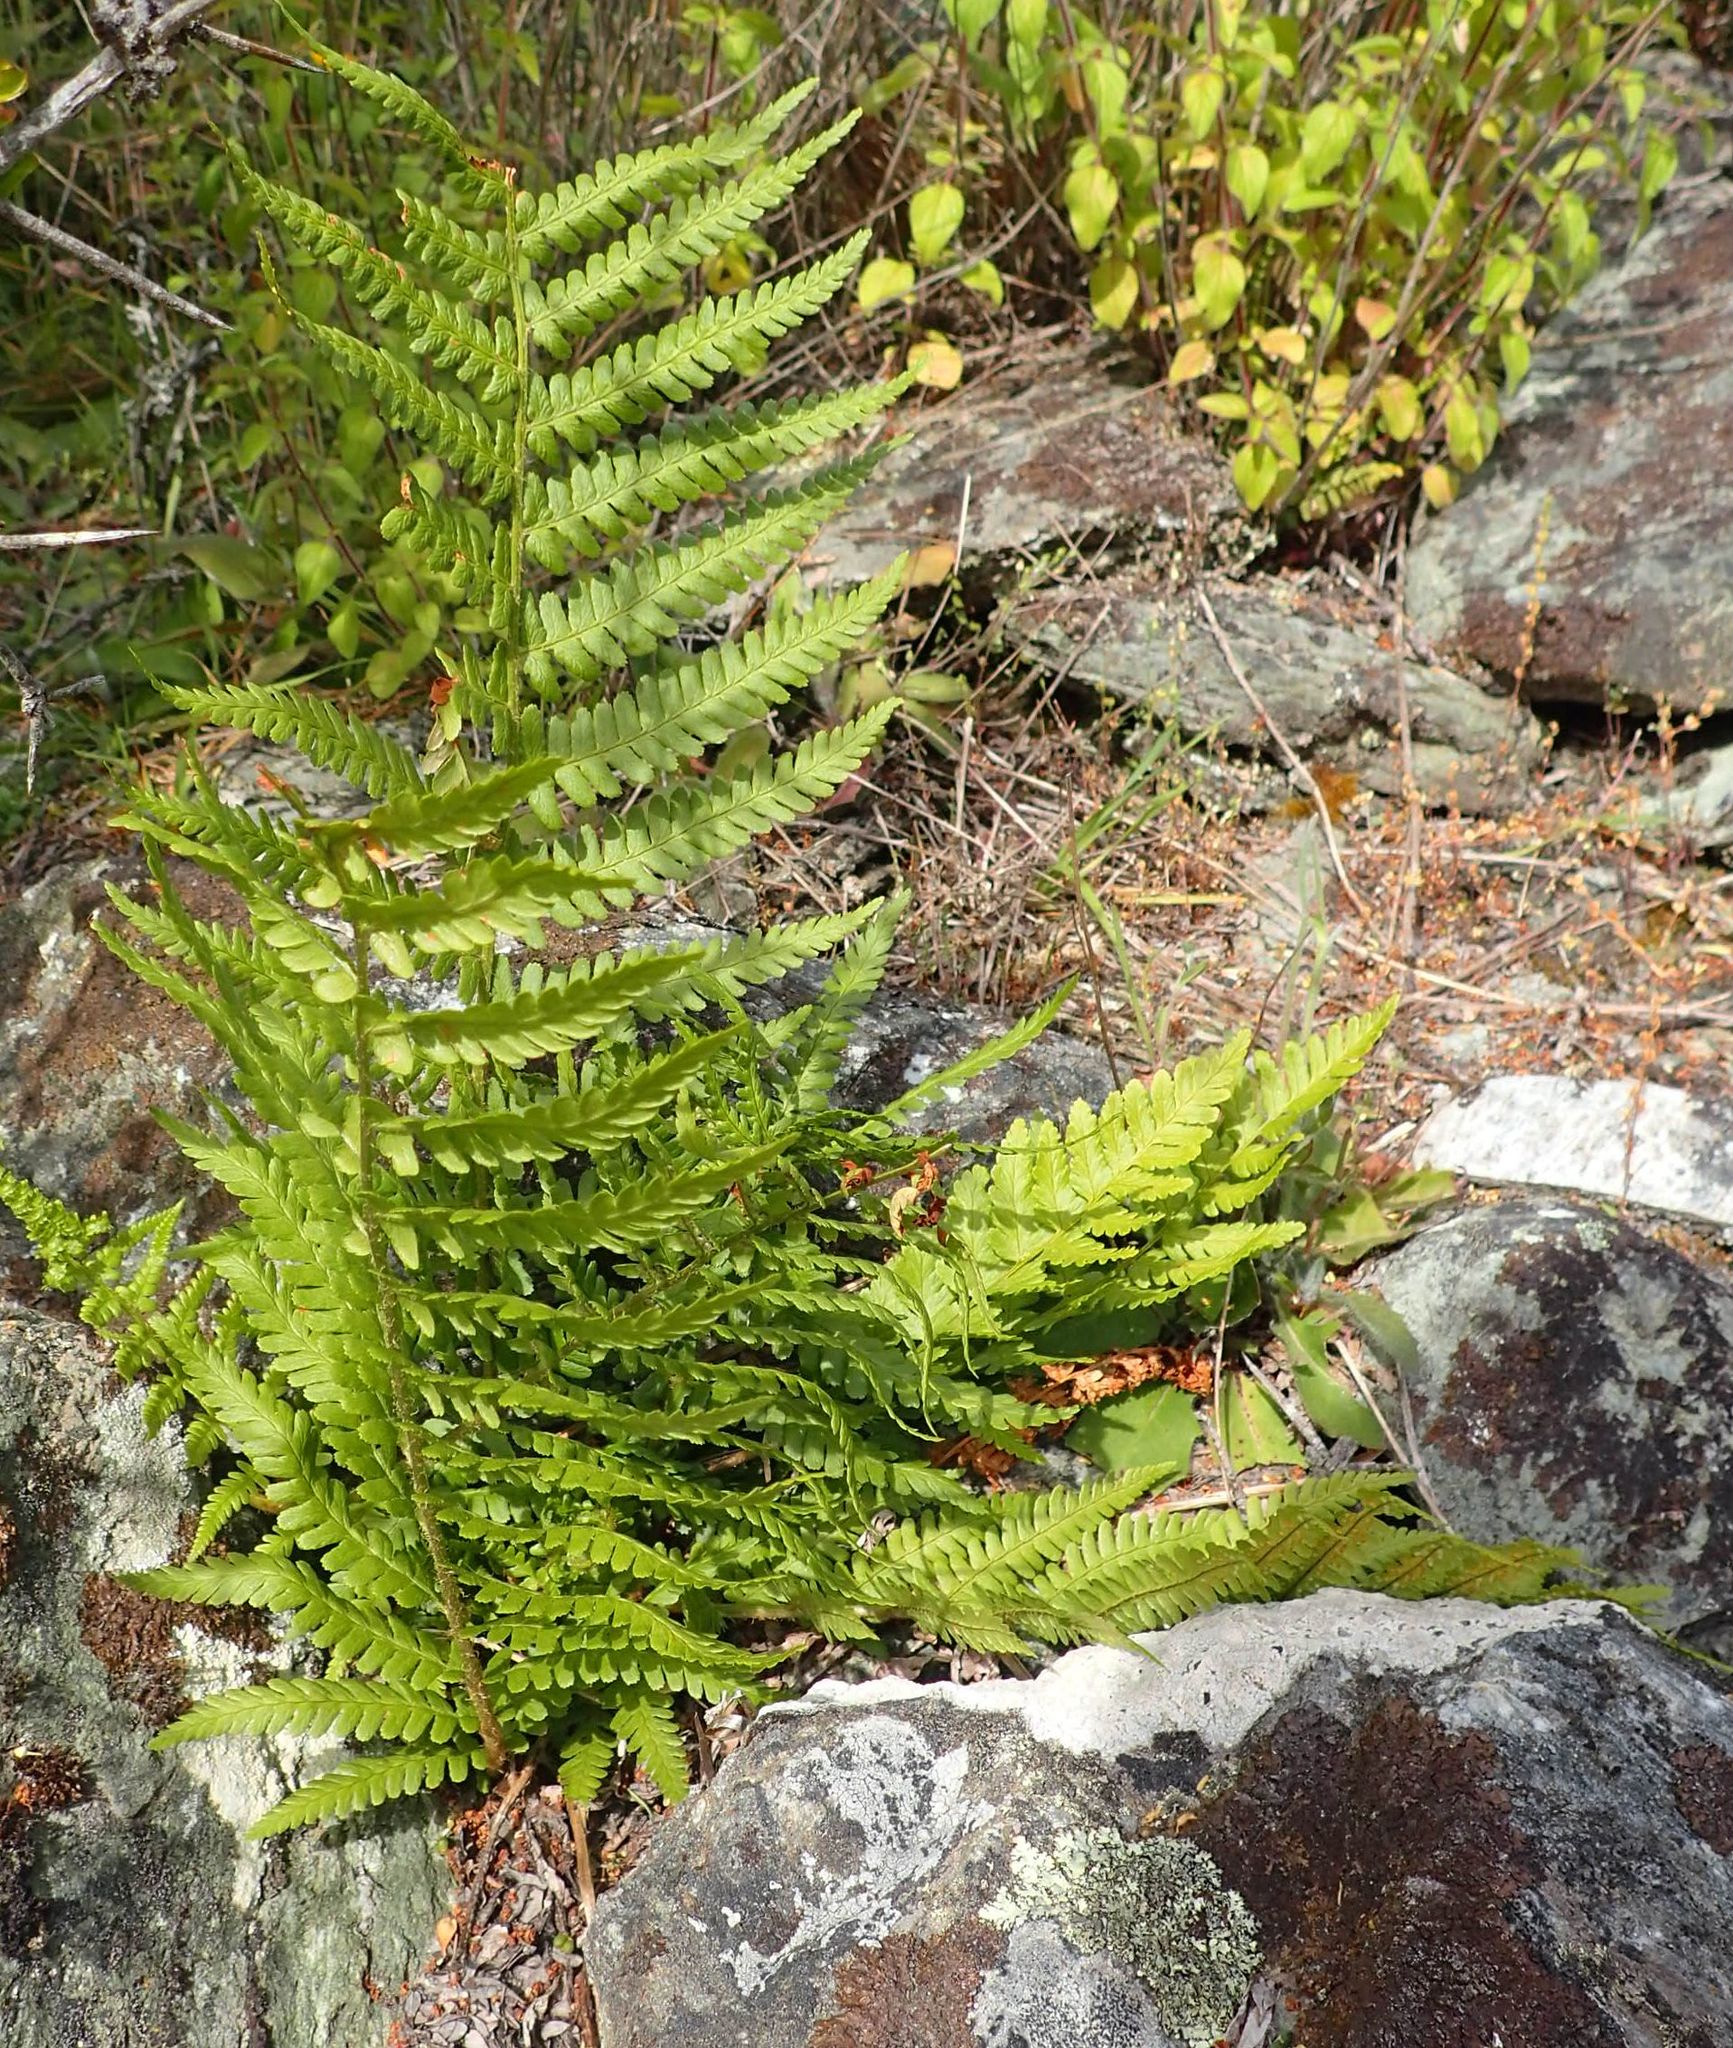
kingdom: Plantae
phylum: Tracheophyta
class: Polypodiopsida
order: Polypodiales
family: Dryopteridaceae
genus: Dryopteris
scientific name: Dryopteris filix-mas
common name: Male fern
